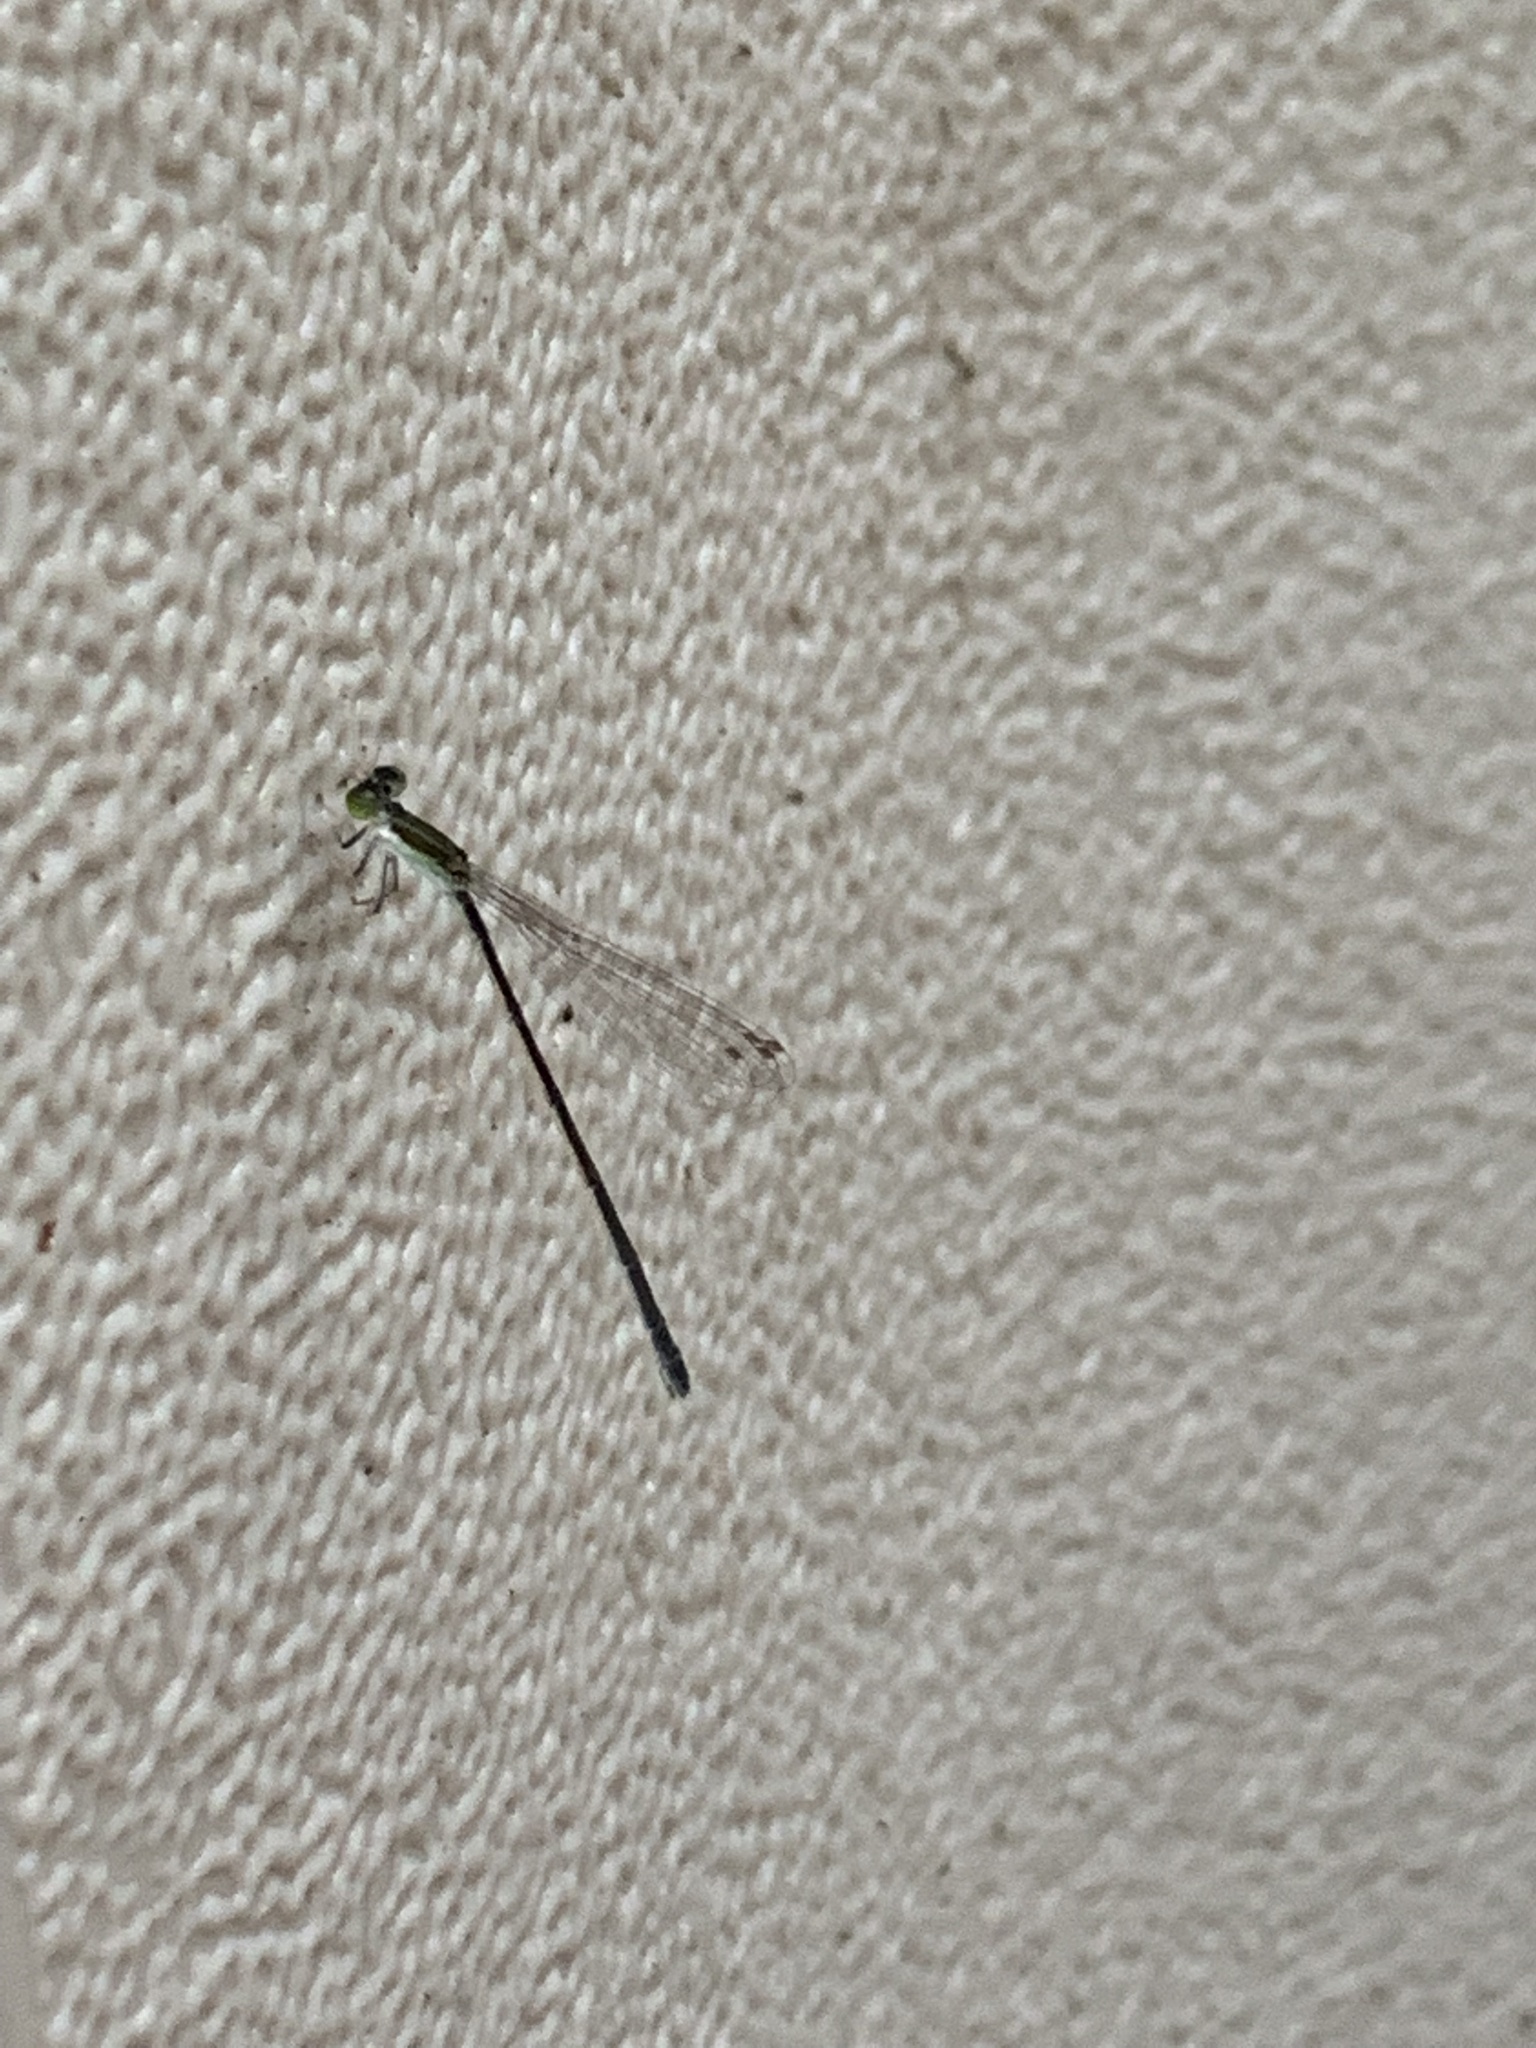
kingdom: Animalia
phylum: Arthropoda
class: Insecta
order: Odonata
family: Coenagrionidae
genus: Ischnura
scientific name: Ischnura hastata
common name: Citrine forktail
